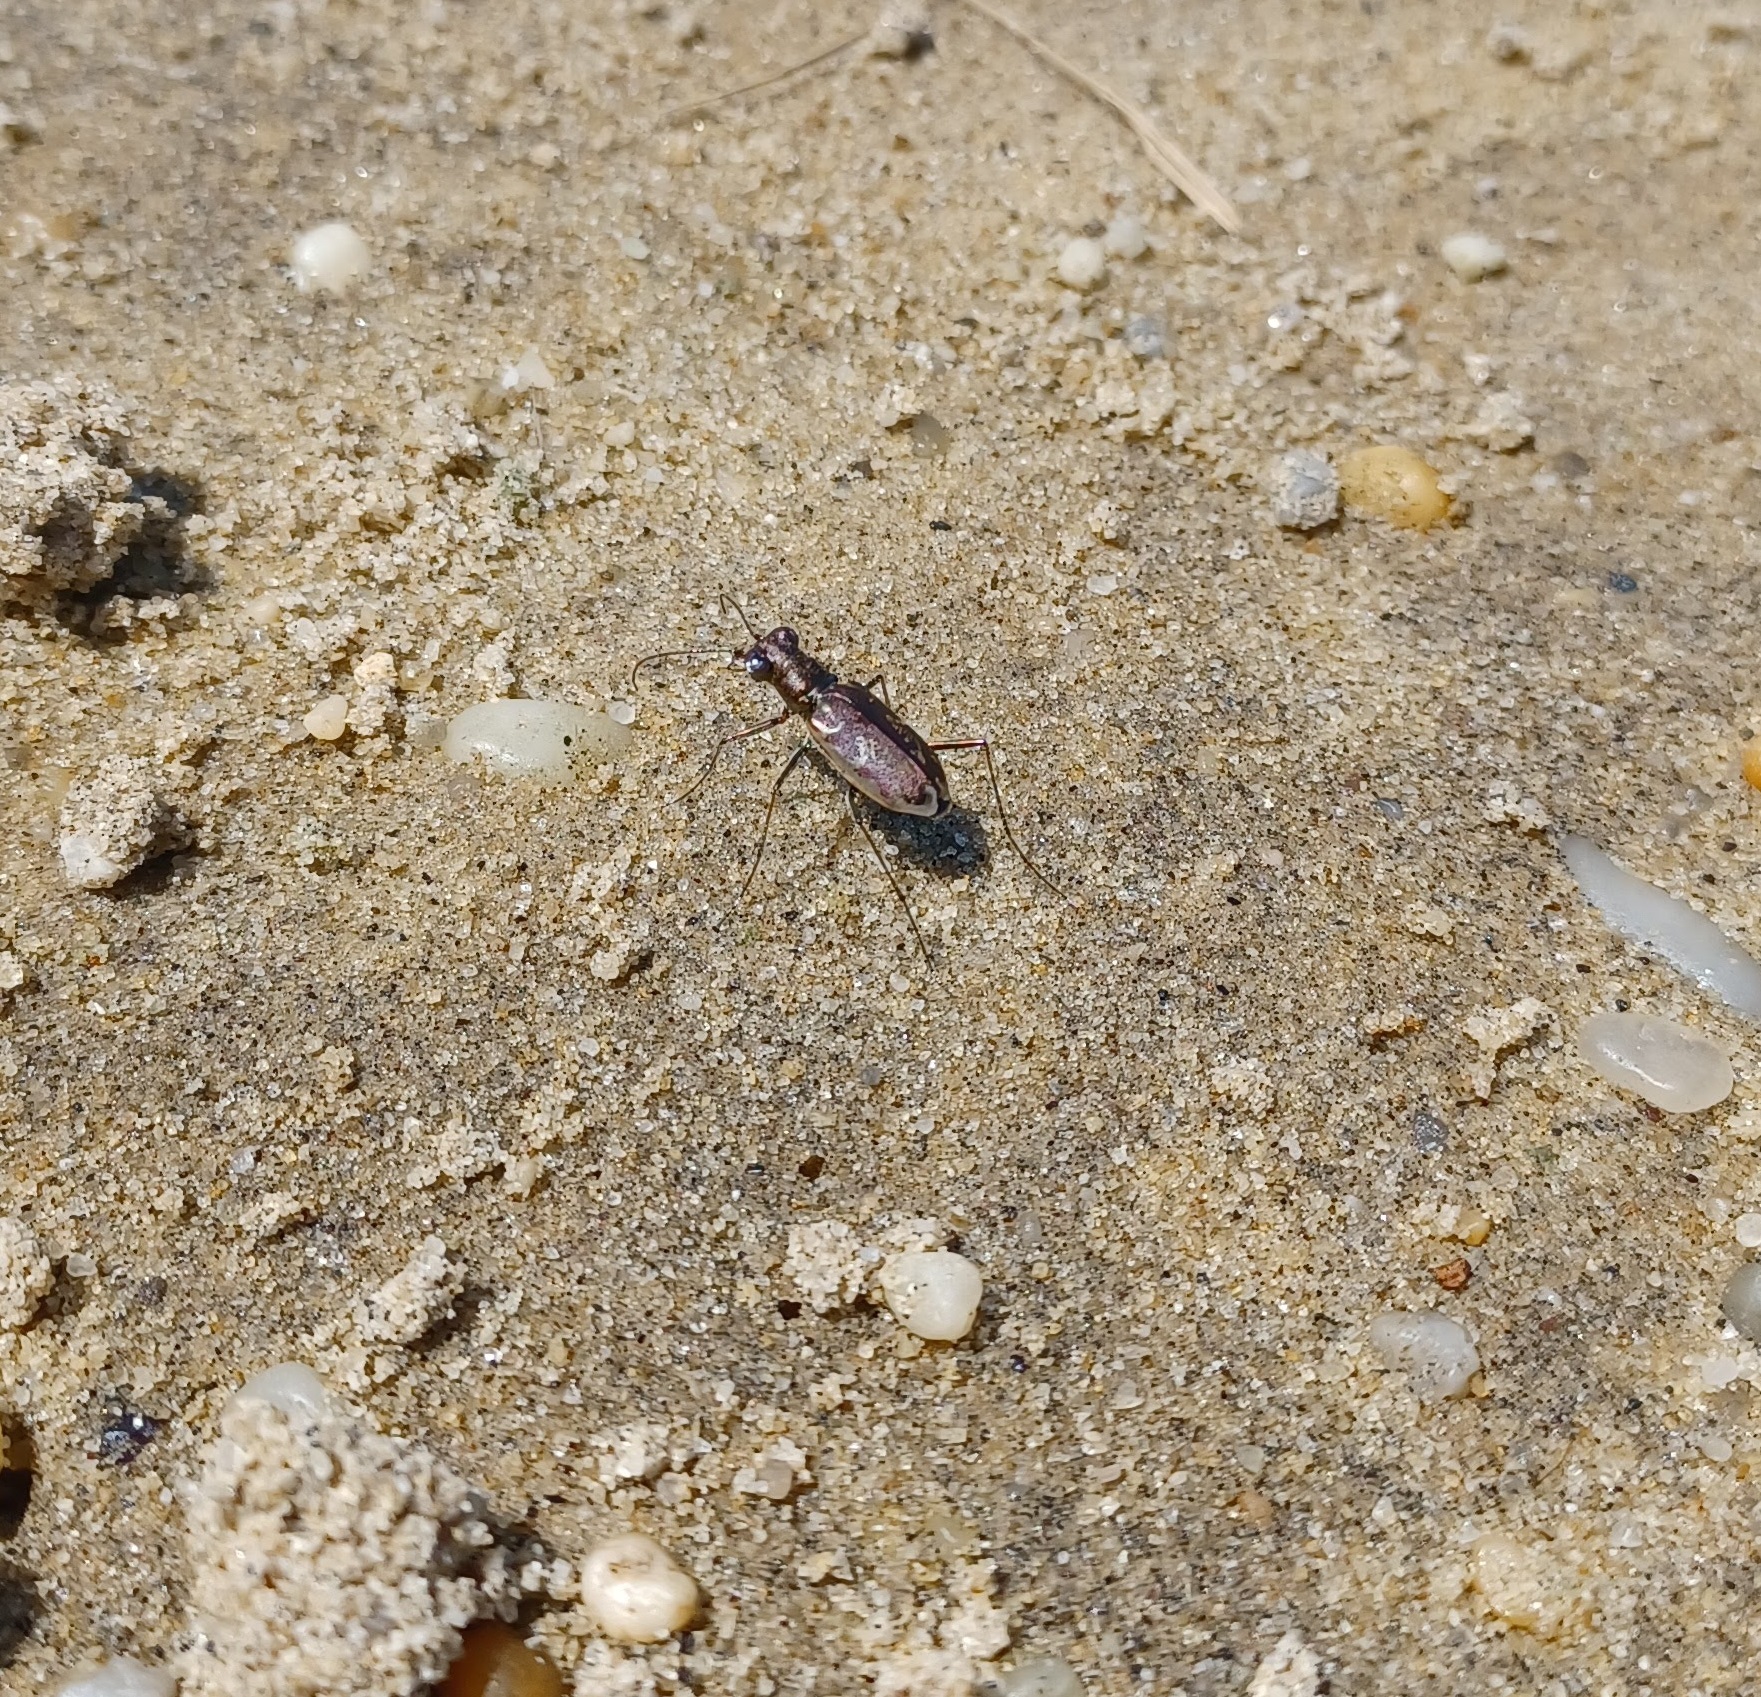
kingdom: Animalia
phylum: Arthropoda
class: Insecta
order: Coleoptera
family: Carabidae
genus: Ellipsoptera
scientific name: Ellipsoptera marginata
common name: Margined tiger beetle
